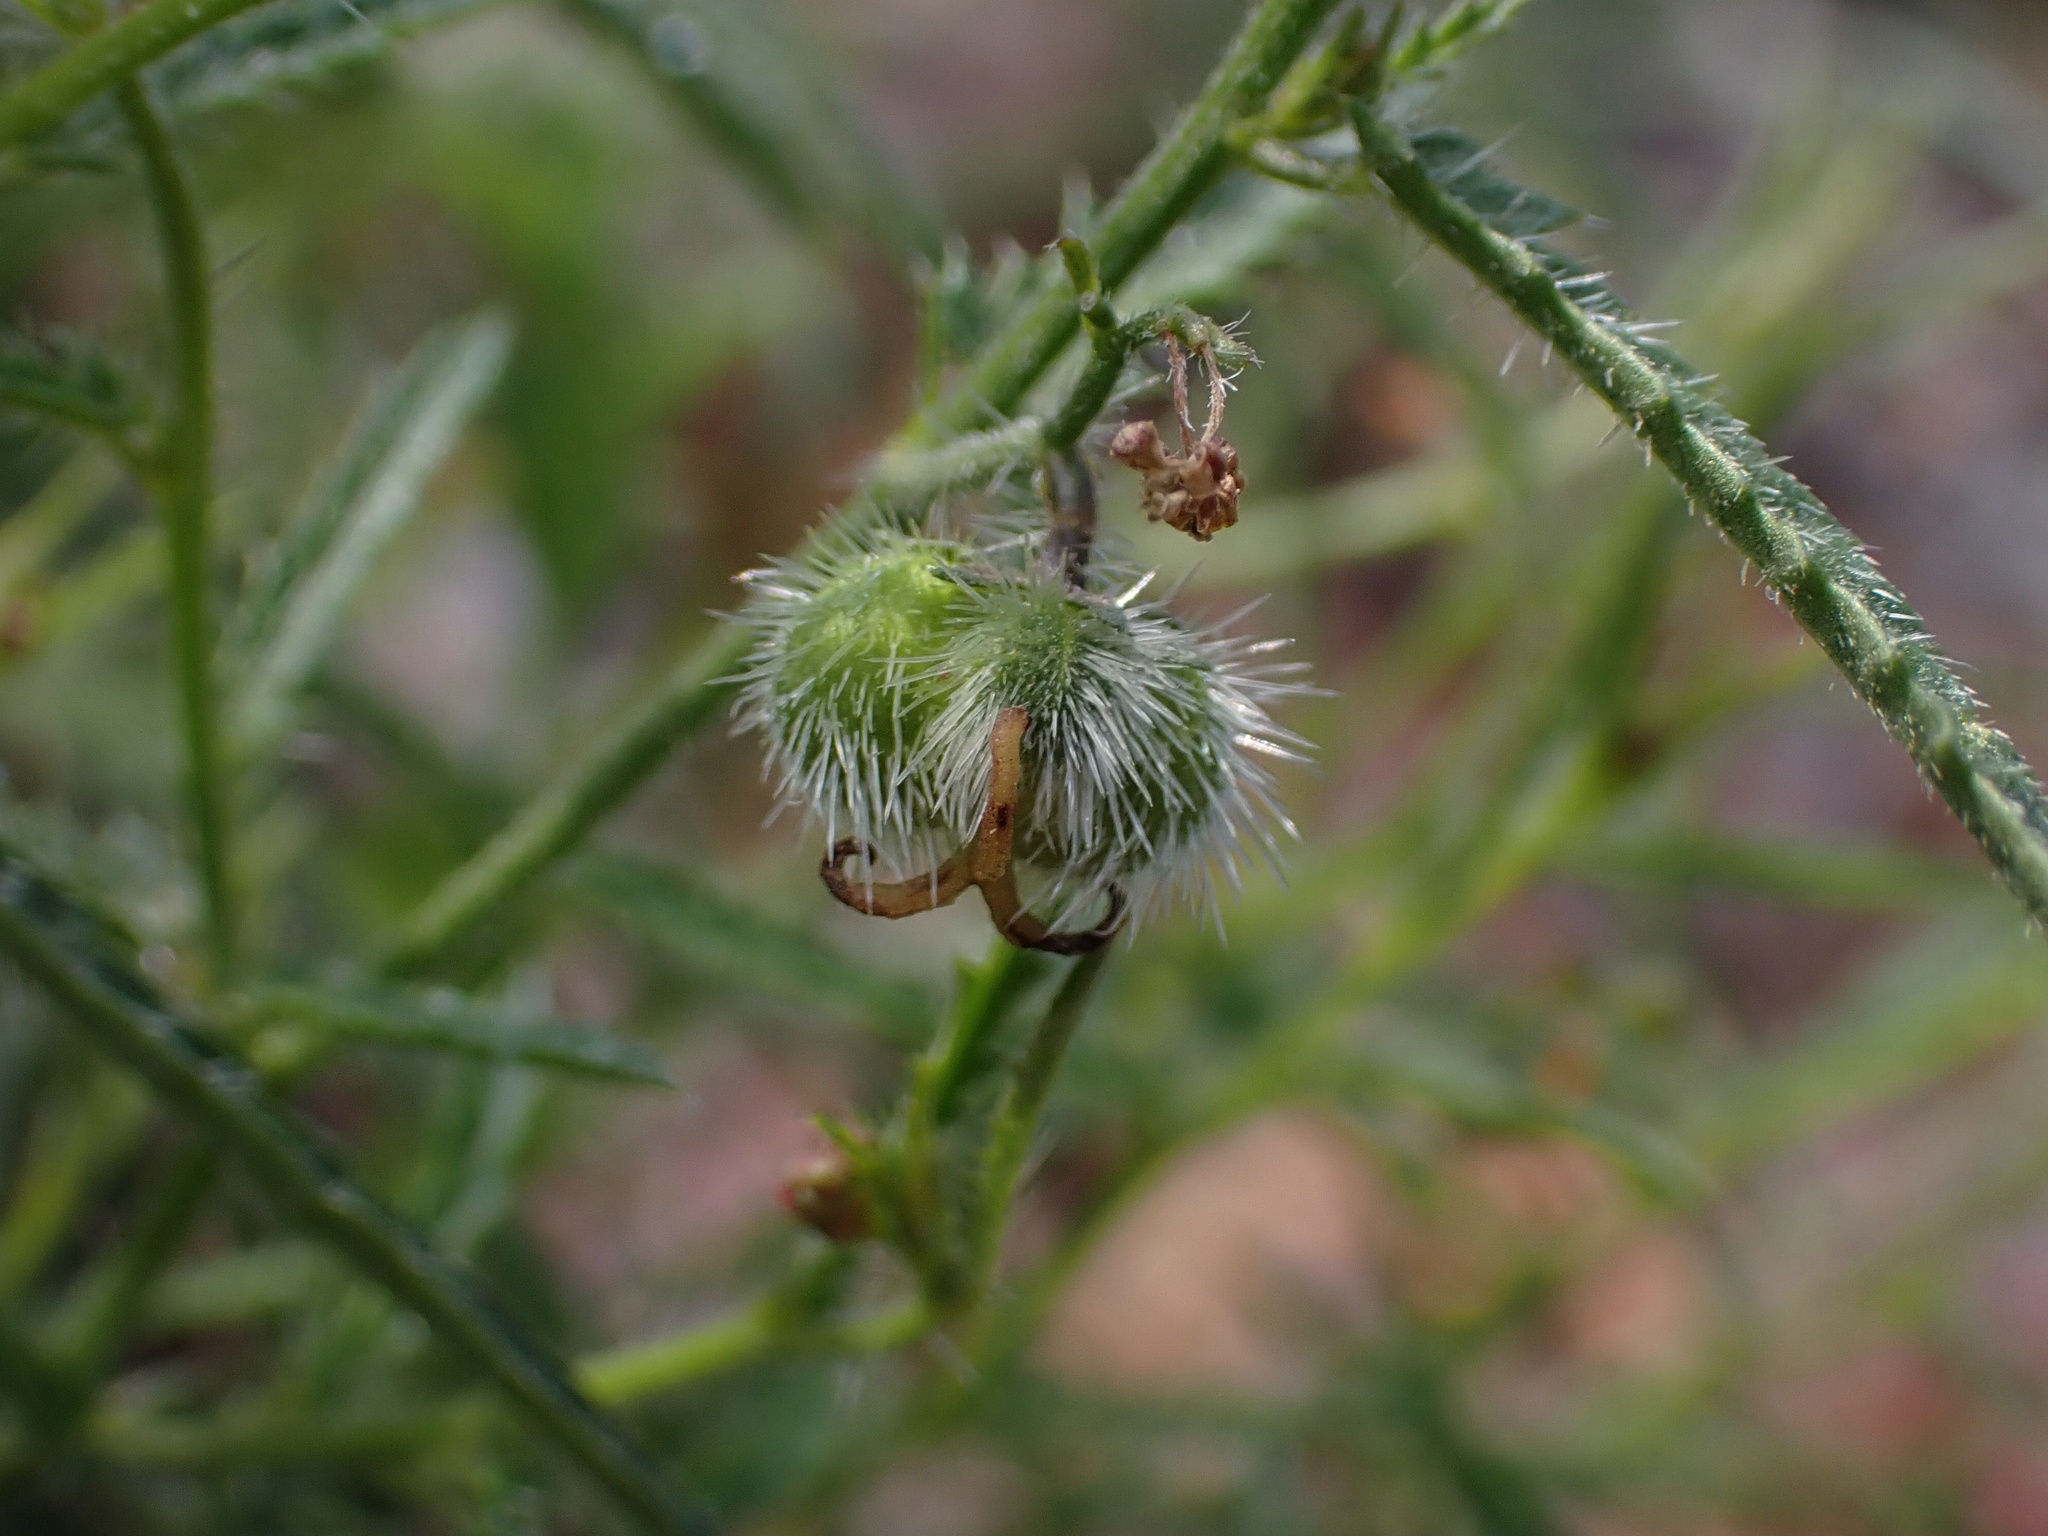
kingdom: Plantae
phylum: Tracheophyta
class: Magnoliopsida
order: Malpighiales
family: Euphorbiaceae
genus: Tragia
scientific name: Tragia ramosa
